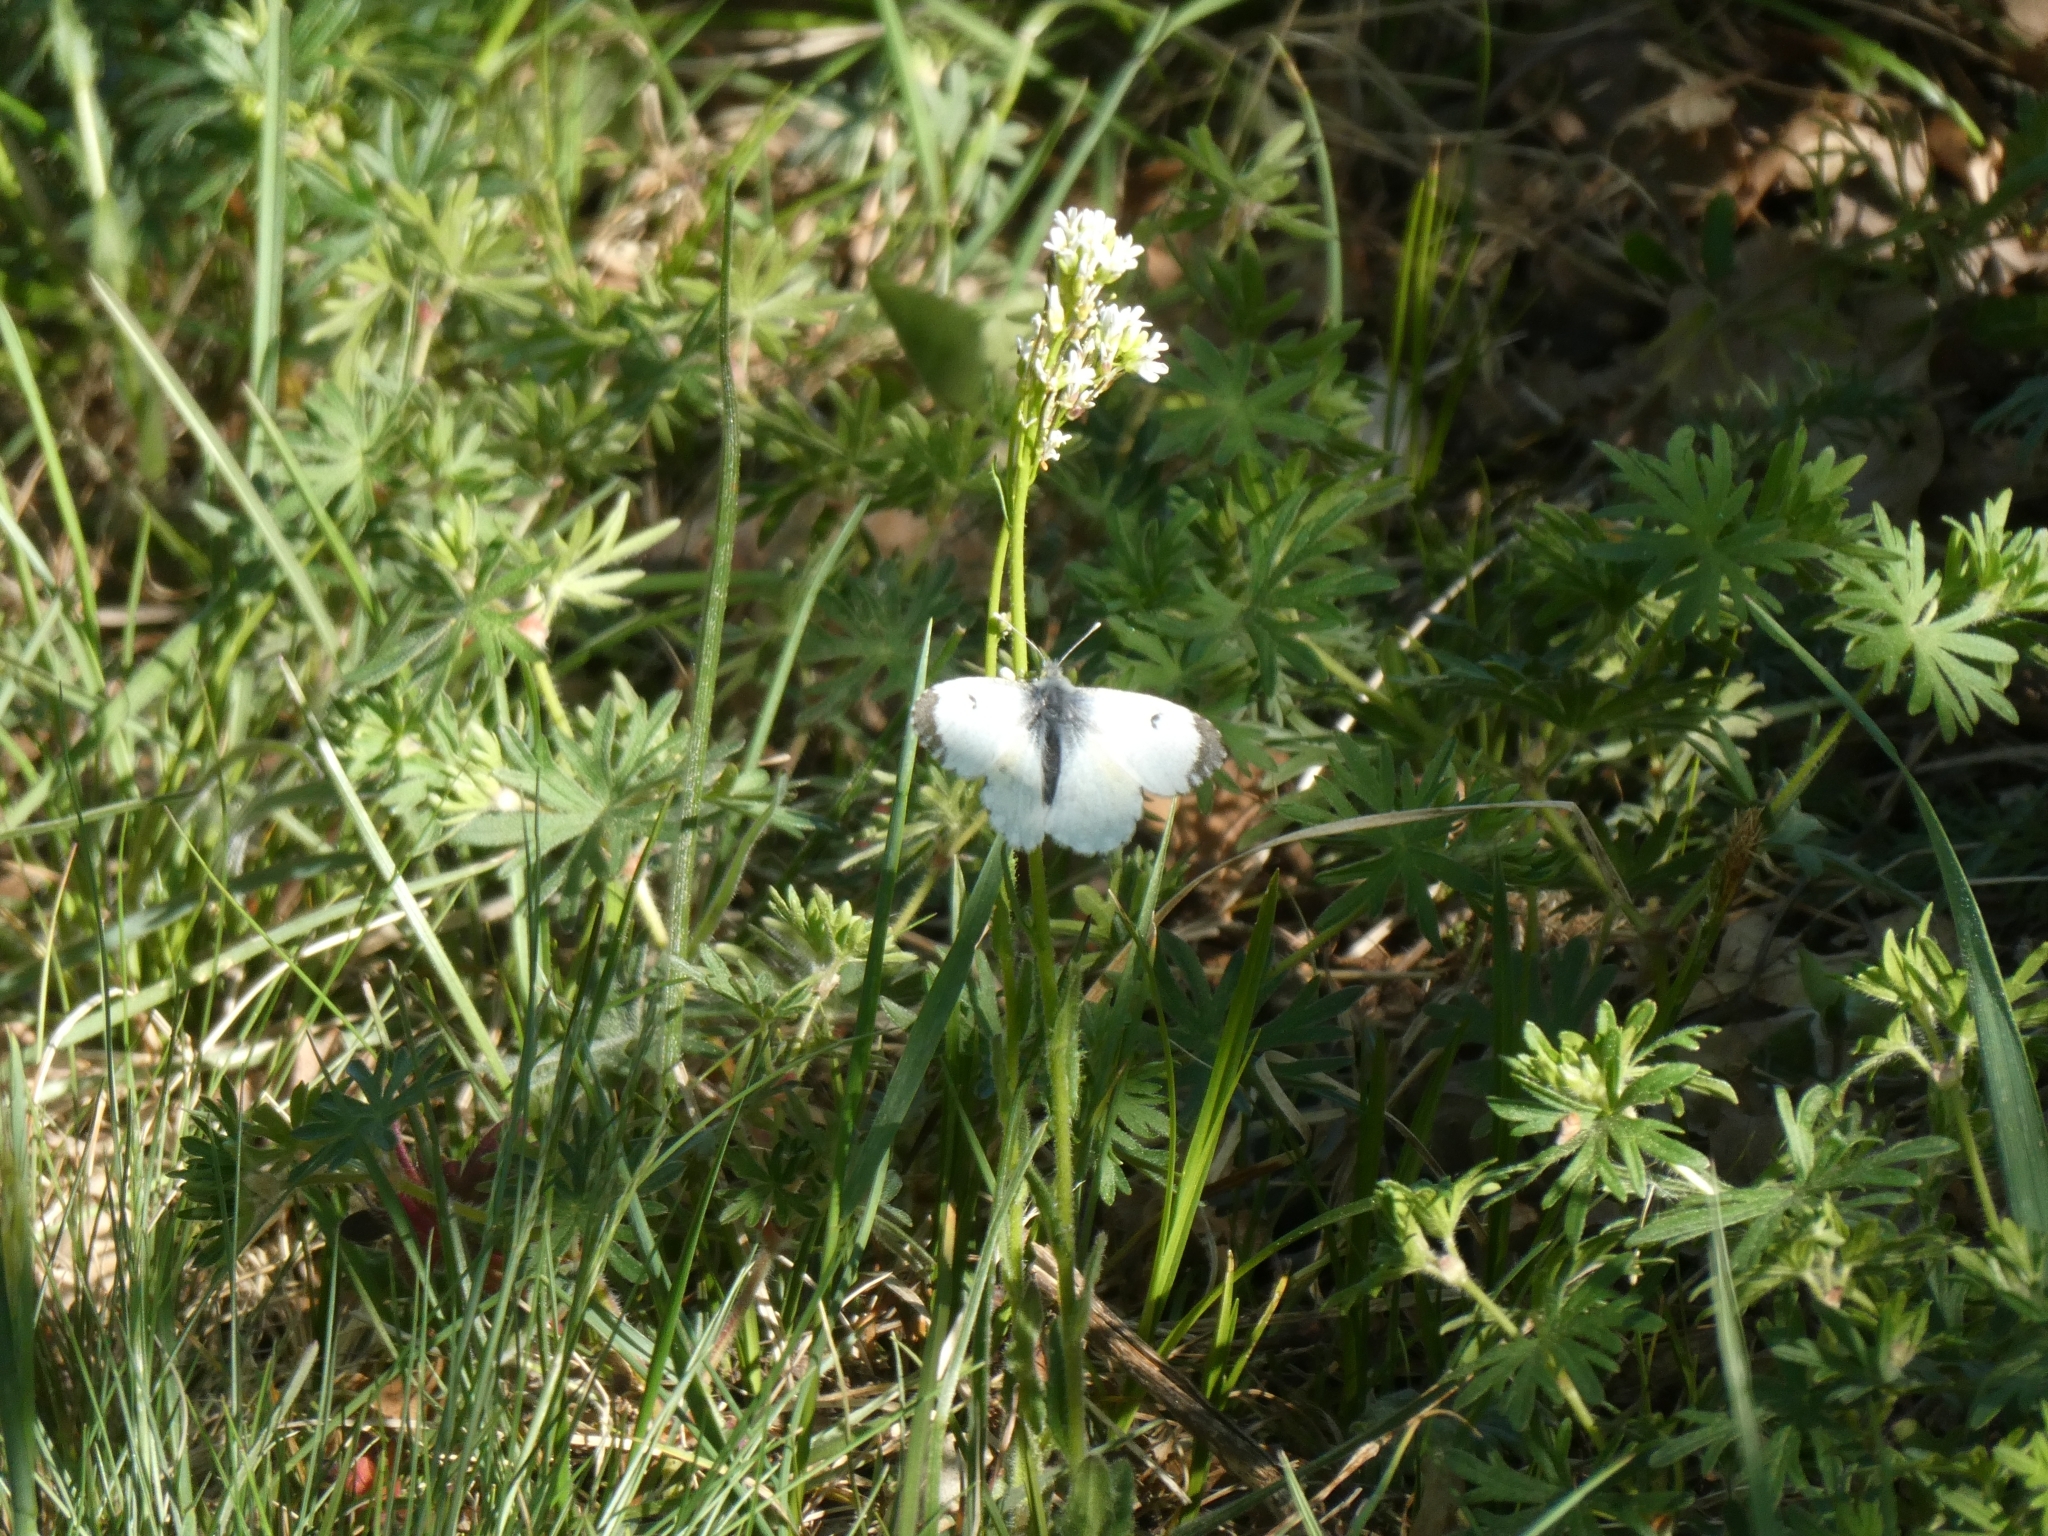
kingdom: Animalia
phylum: Arthropoda
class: Insecta
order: Lepidoptera
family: Pieridae
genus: Anthocharis
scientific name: Anthocharis cardamines
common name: Orange-tip
